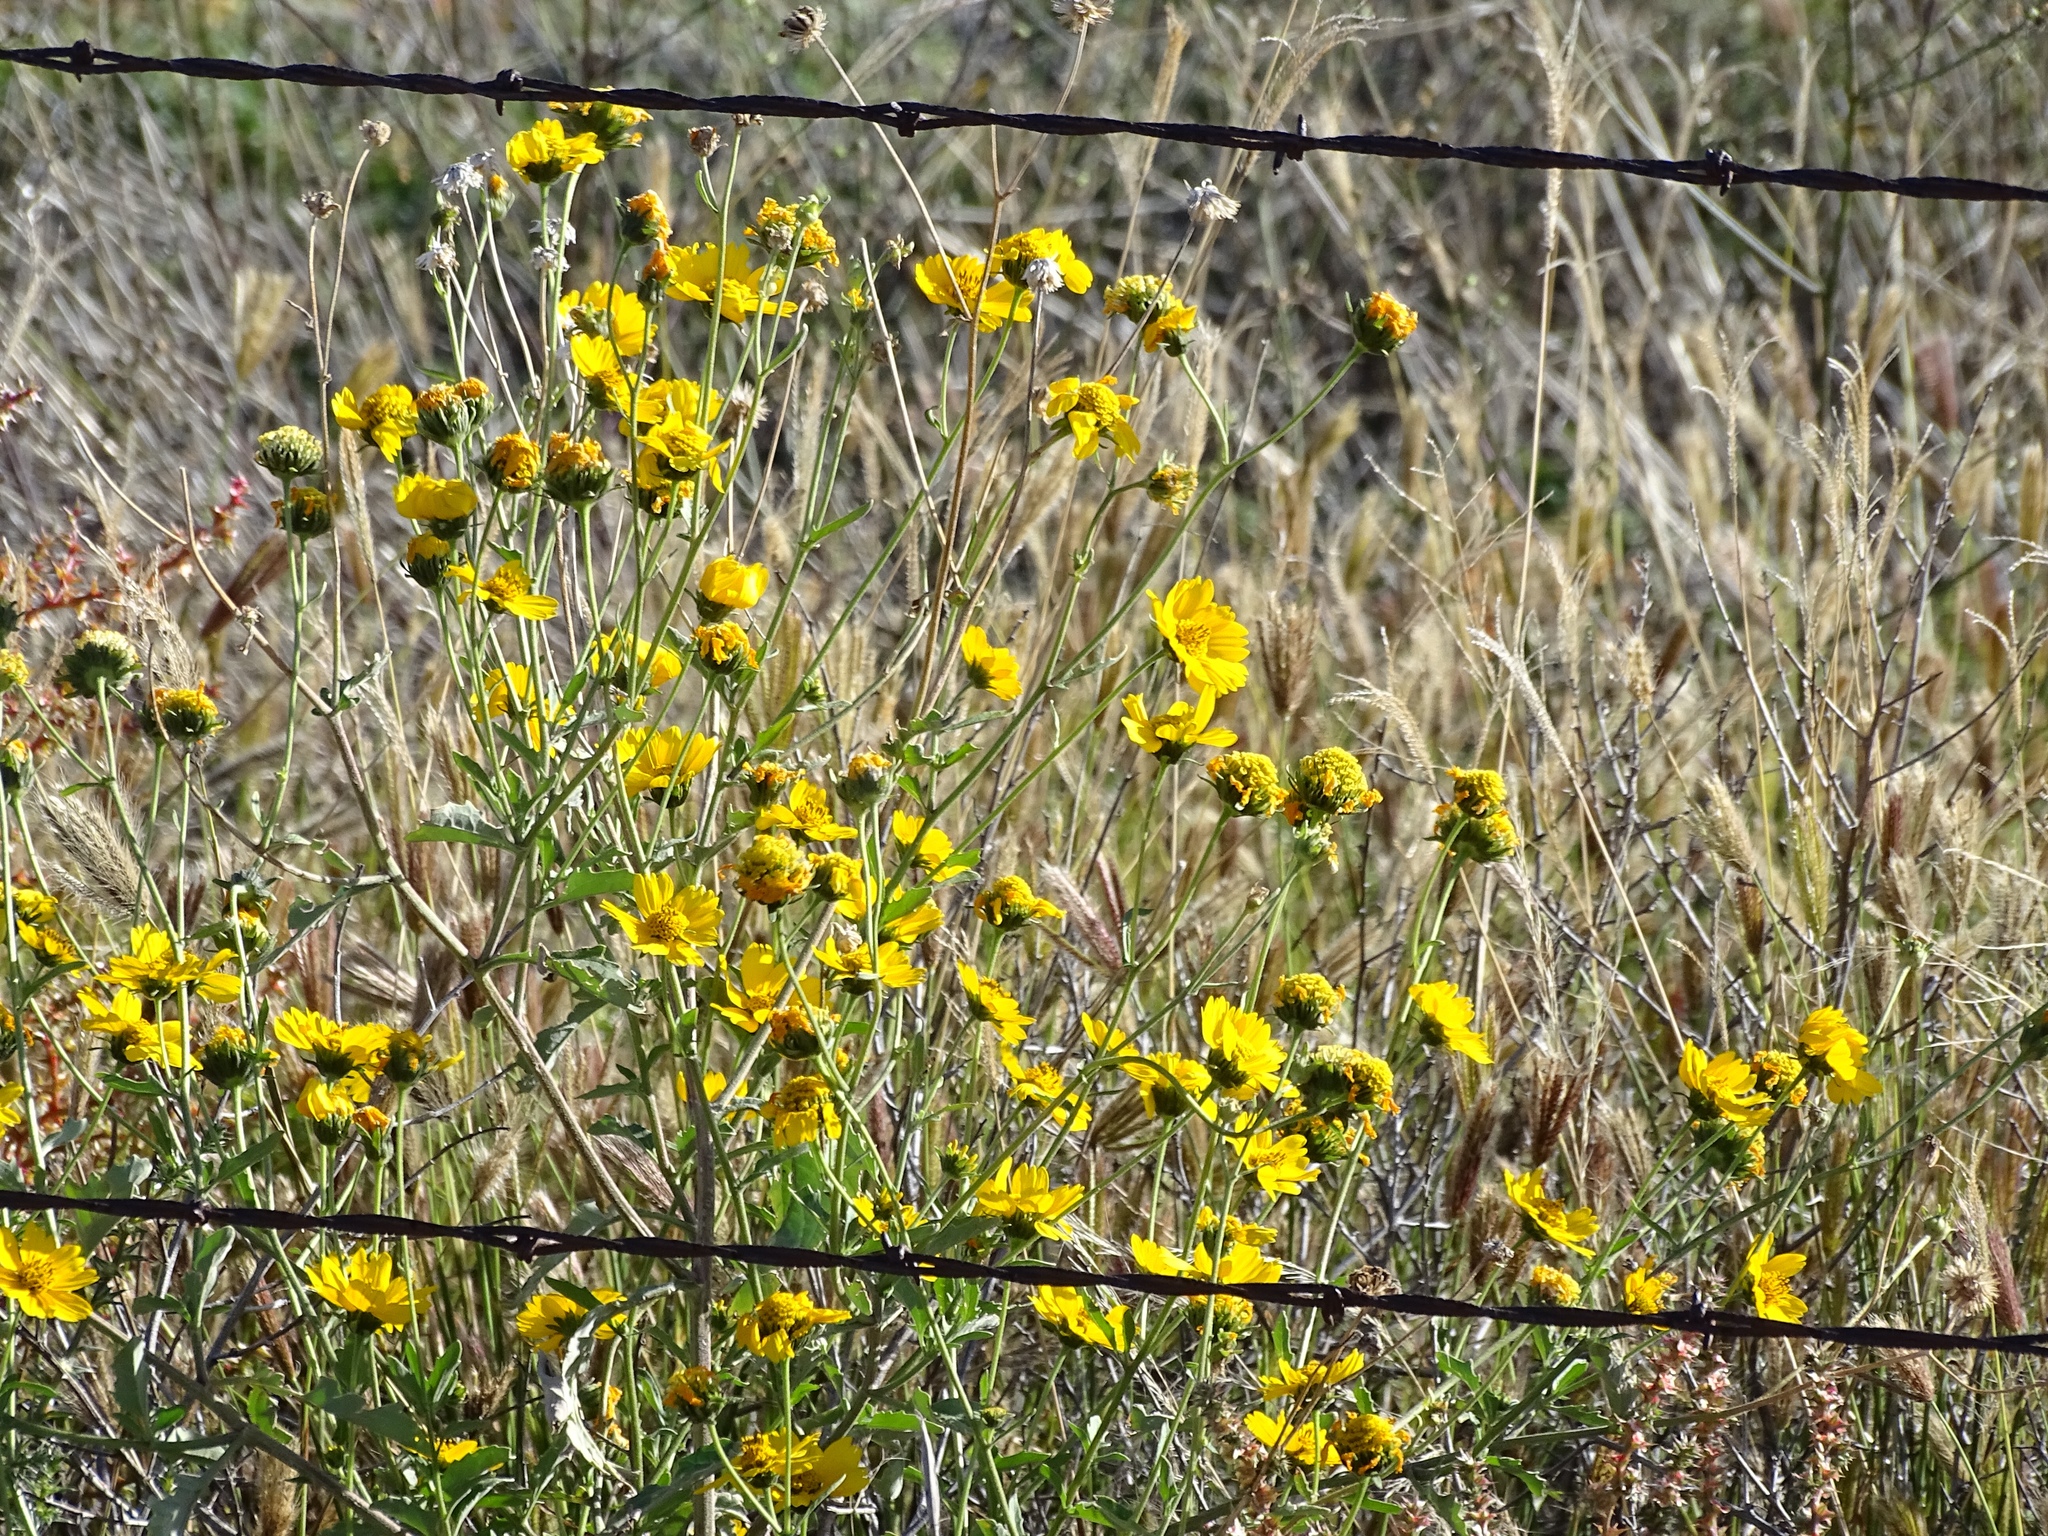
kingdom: Plantae
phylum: Tracheophyta
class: Magnoliopsida
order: Asterales
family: Asteraceae
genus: Verbesina
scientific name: Verbesina encelioides
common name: Golden crownbeard
